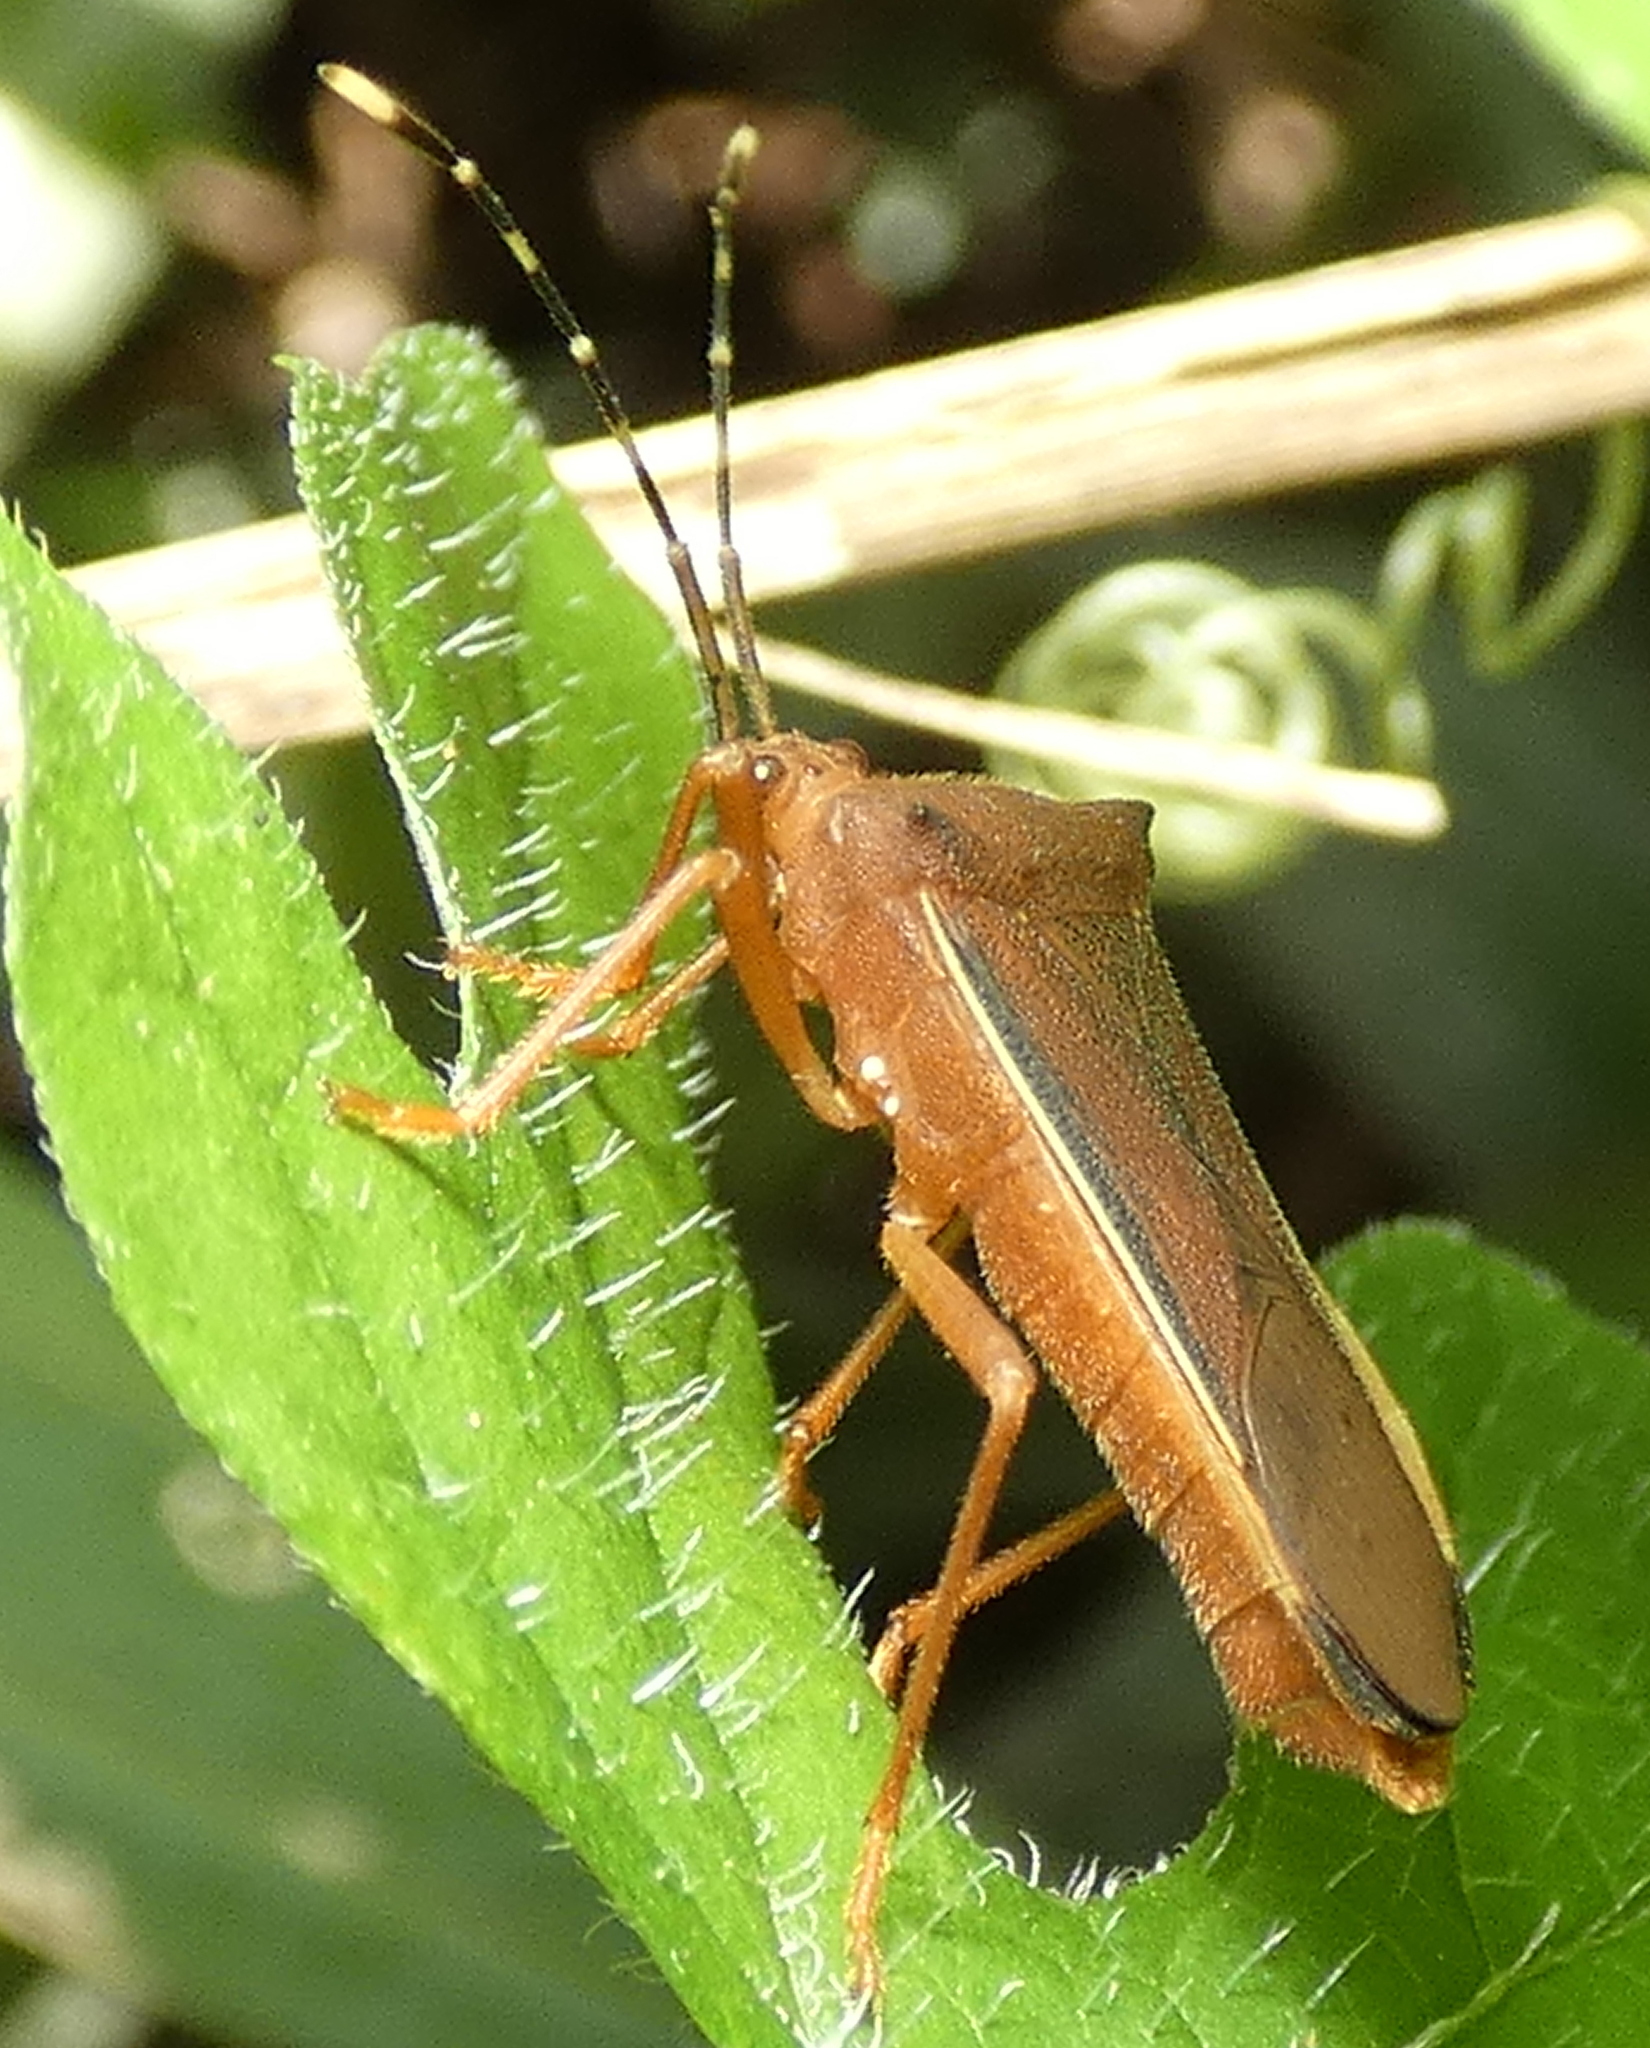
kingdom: Animalia
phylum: Arthropoda
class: Insecta
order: Hemiptera
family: Coreidae
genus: Anasa
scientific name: Anasa varicornis
